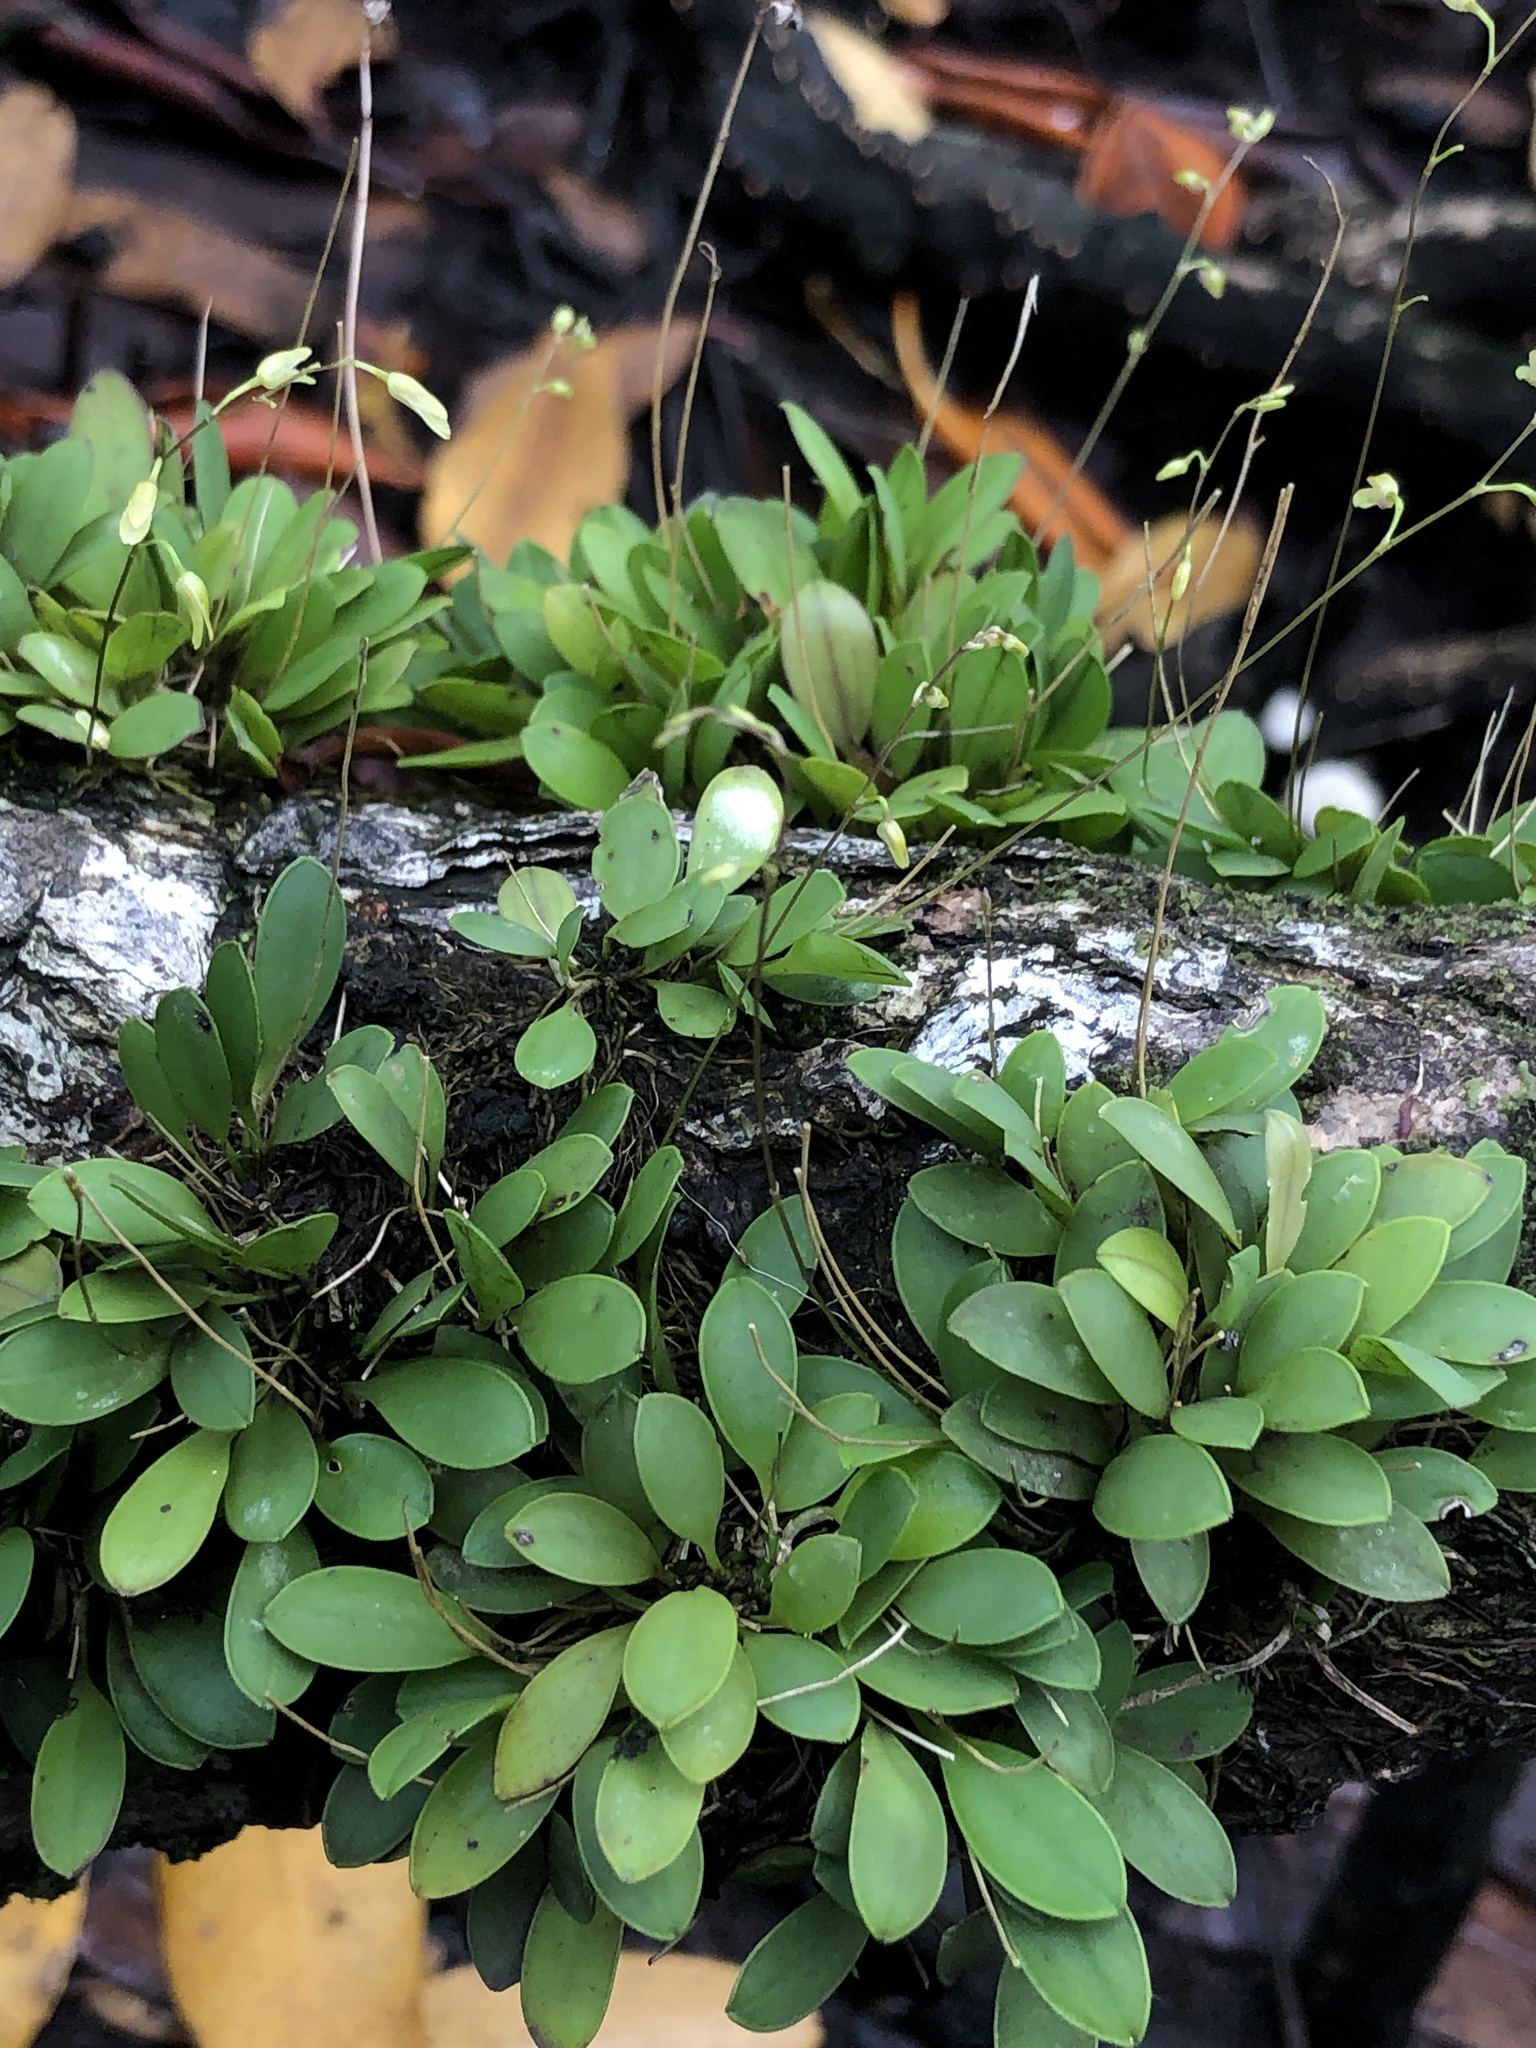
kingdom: Plantae
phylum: Tracheophyta
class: Liliopsida
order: Asparagales
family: Orchidaceae
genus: Specklinia
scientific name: Specklinia grobyi
